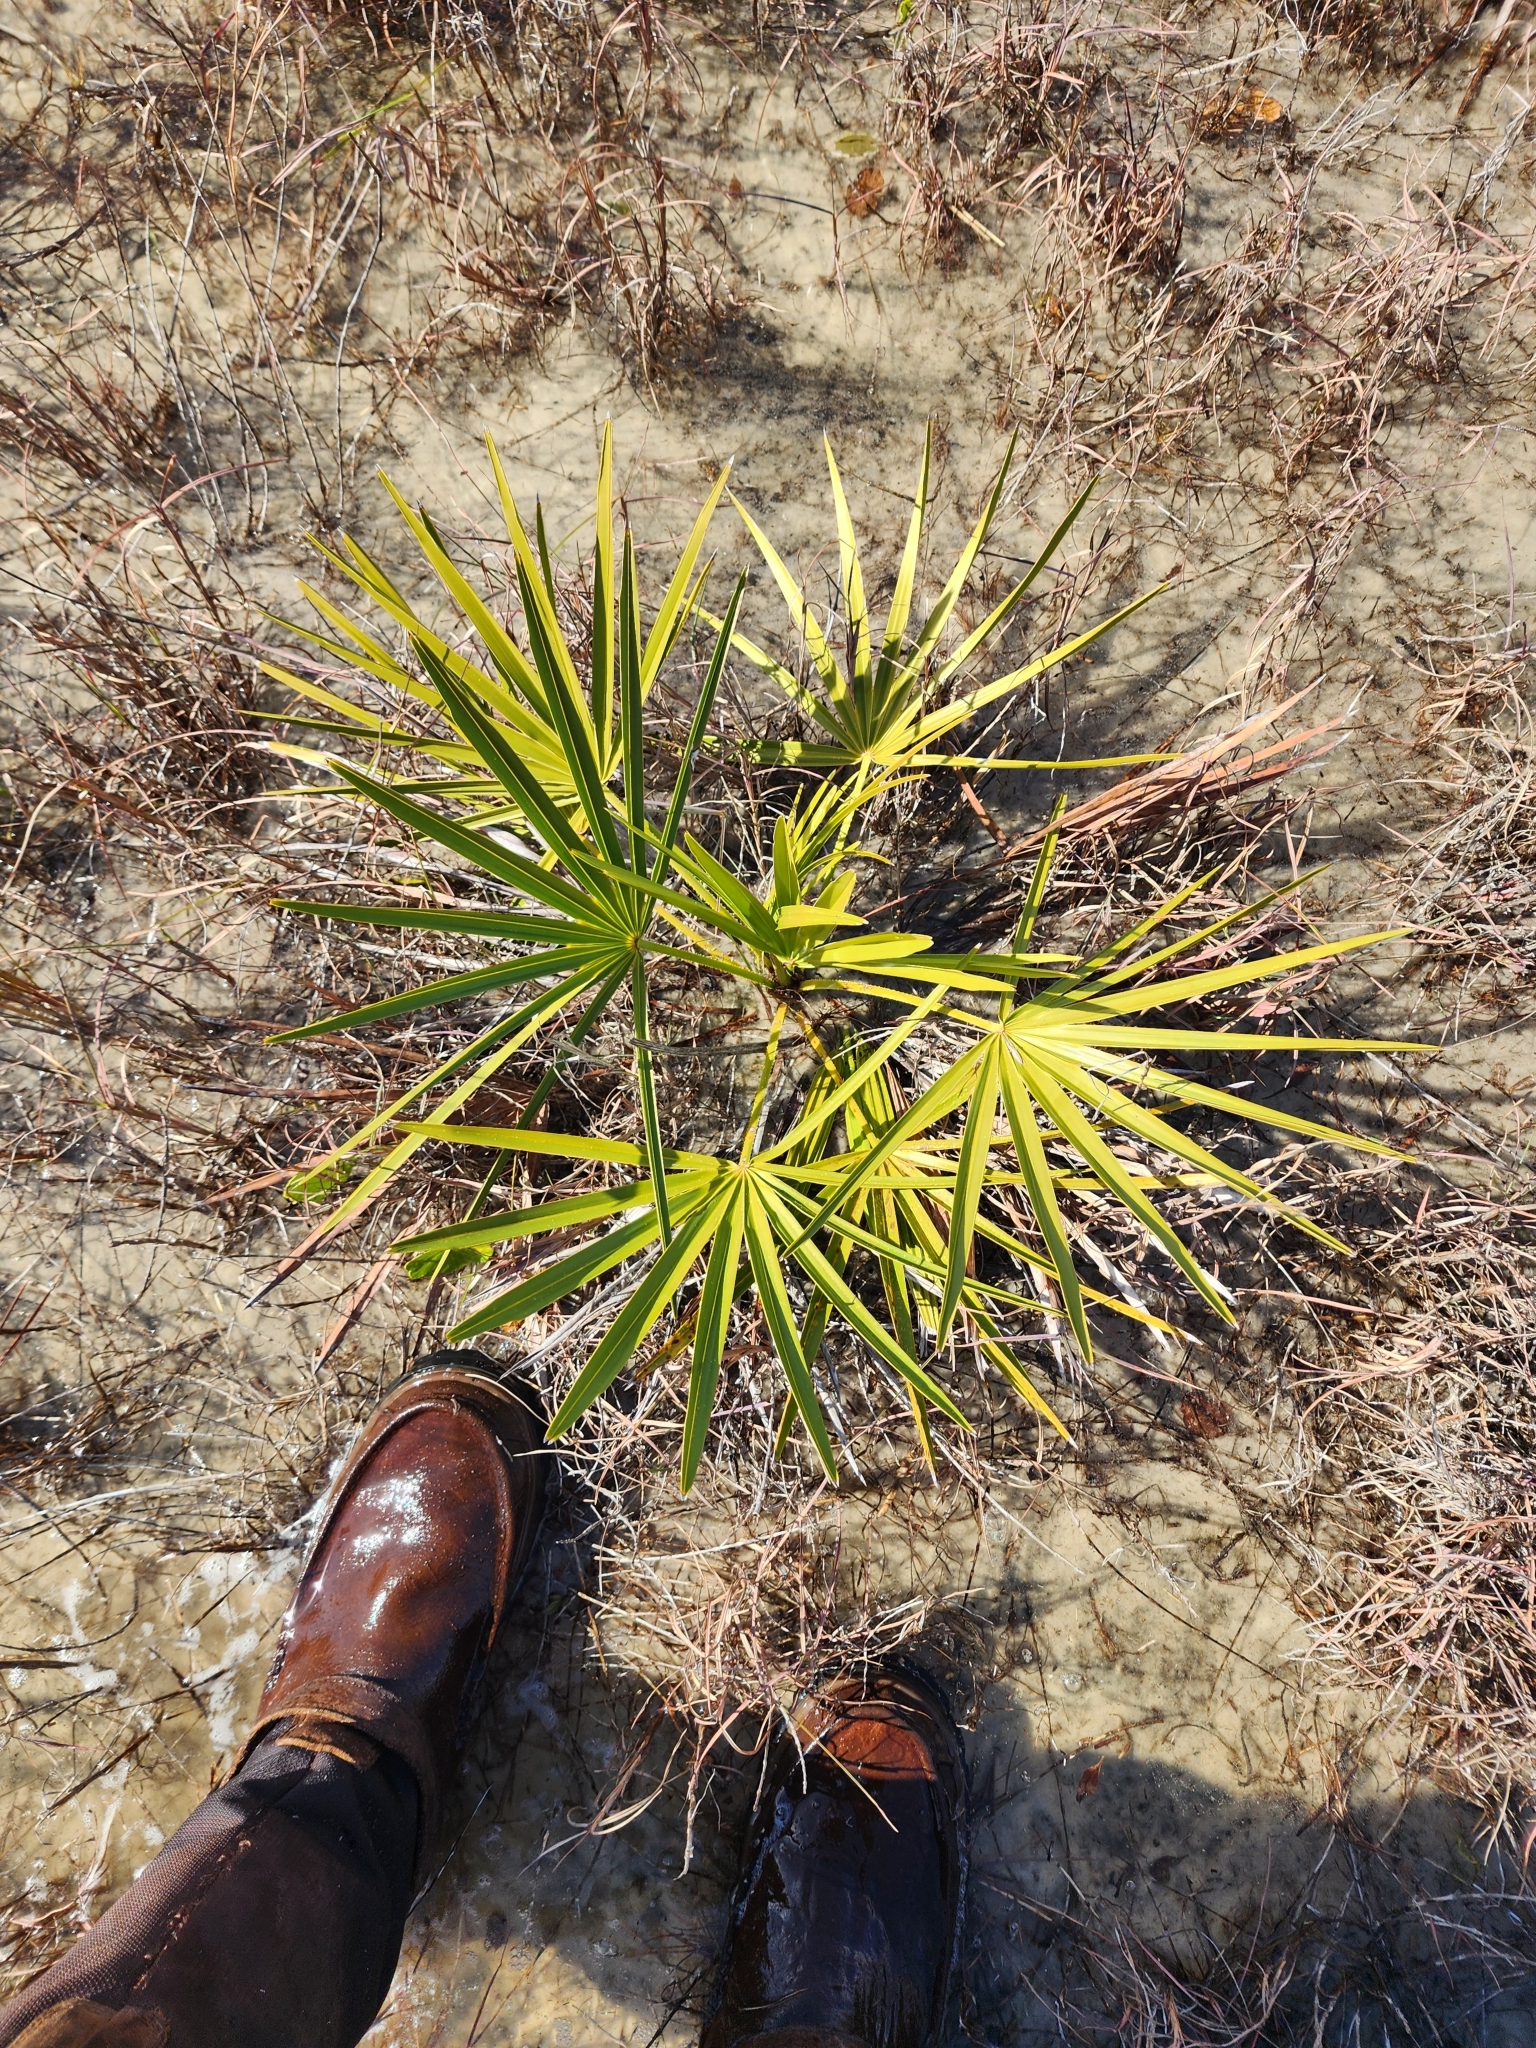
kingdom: Plantae
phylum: Tracheophyta
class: Liliopsida
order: Arecales
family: Arecaceae
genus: Serenoa
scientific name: Serenoa repens
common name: Saw-palmetto
